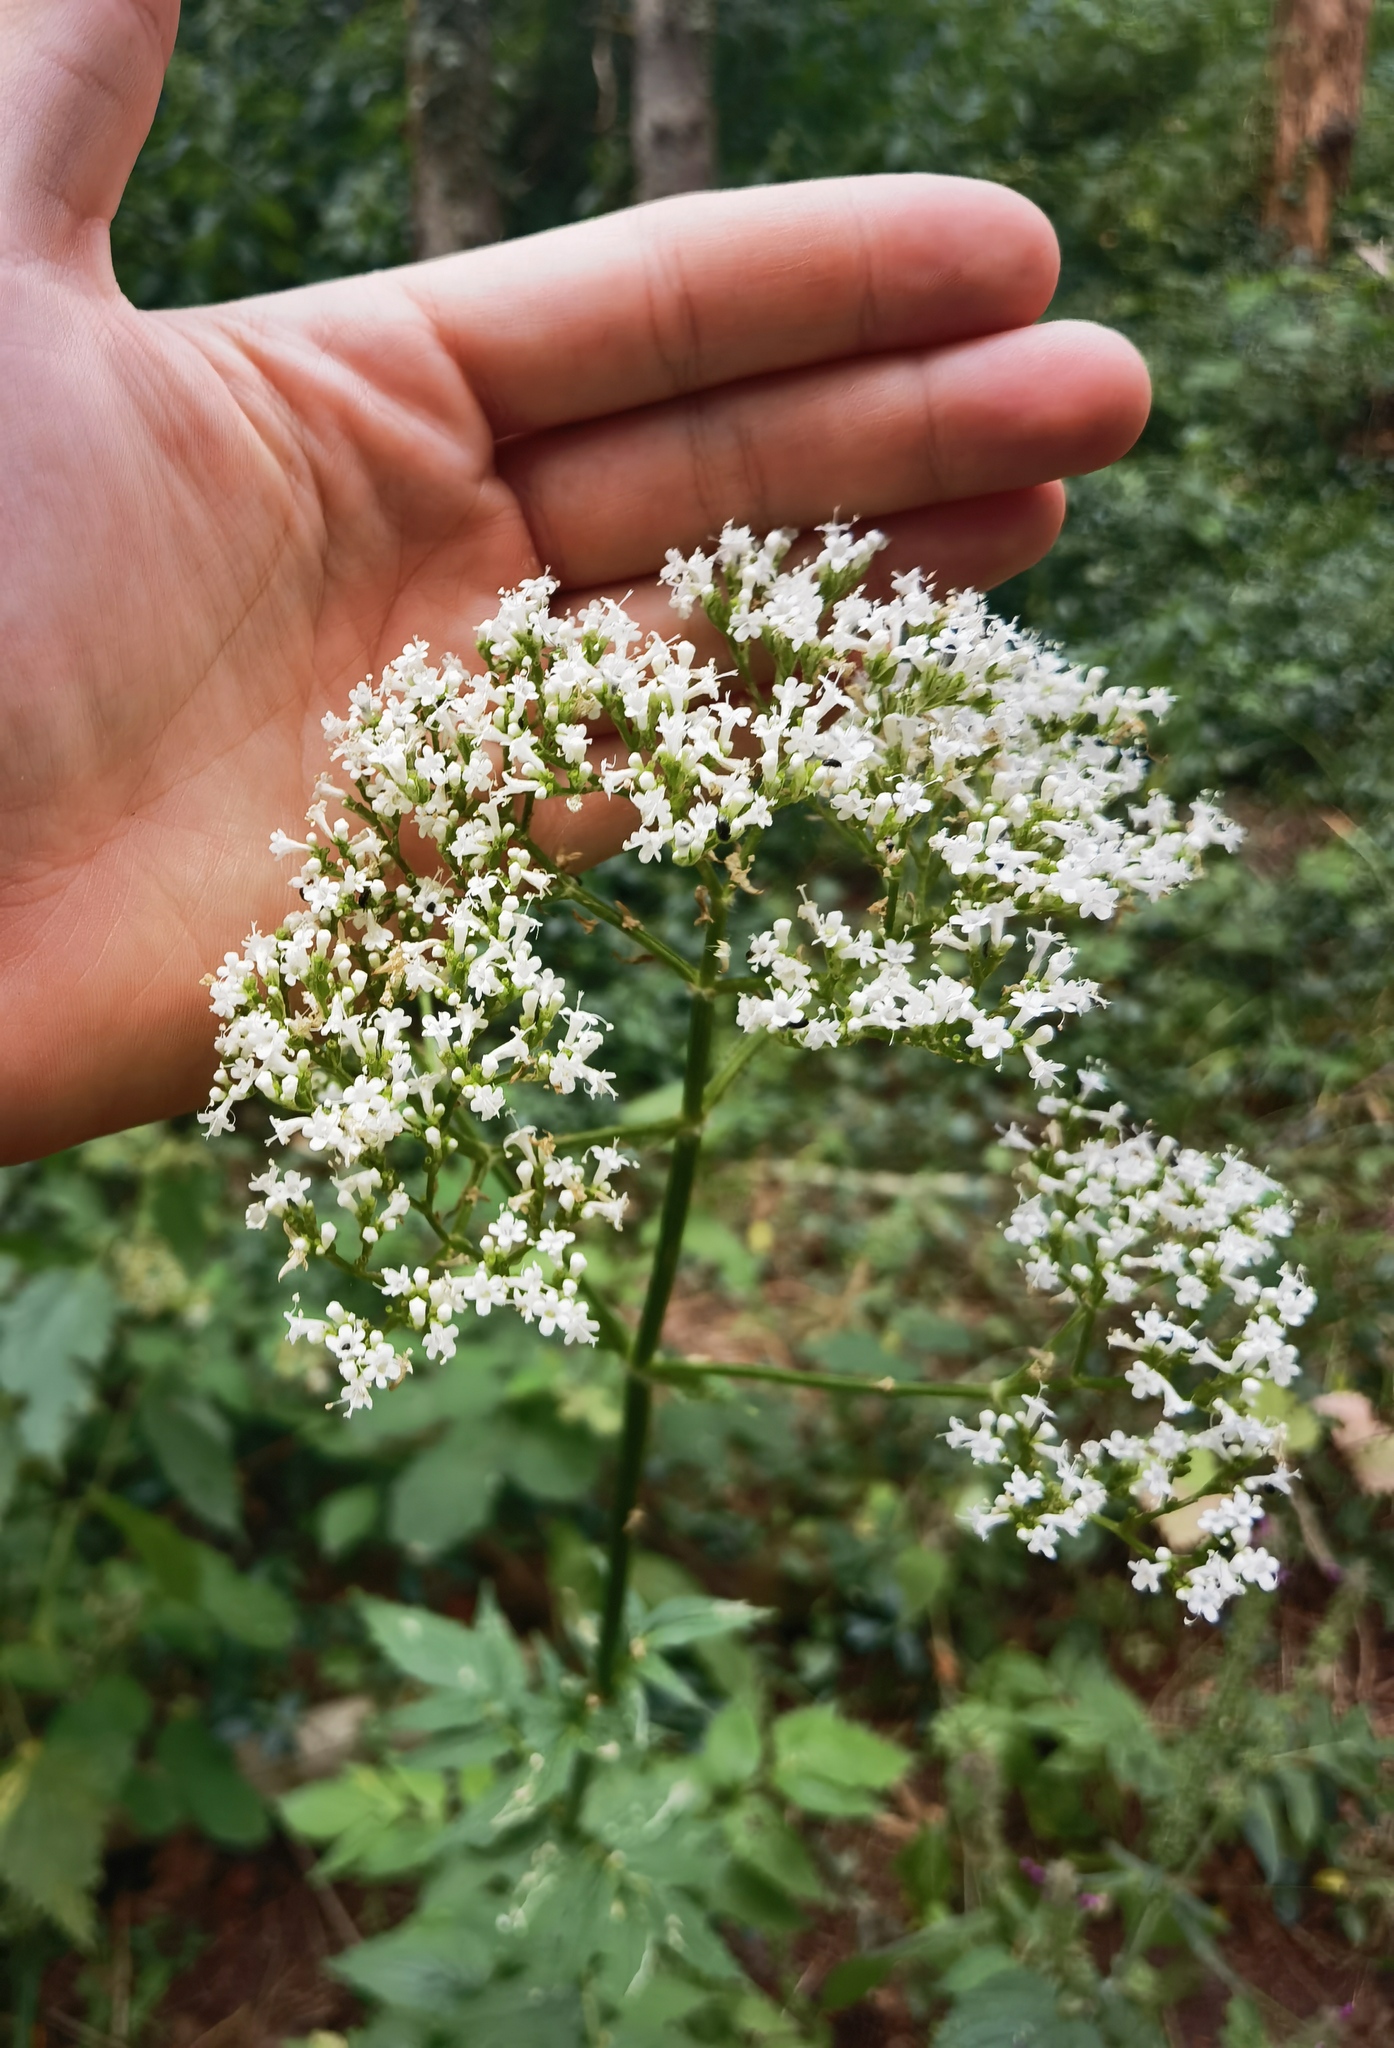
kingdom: Plantae
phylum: Tracheophyta
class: Magnoliopsida
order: Dipsacales
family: Caprifoliaceae
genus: Valeriana
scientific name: Valeriana officinalis
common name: Common valerian
